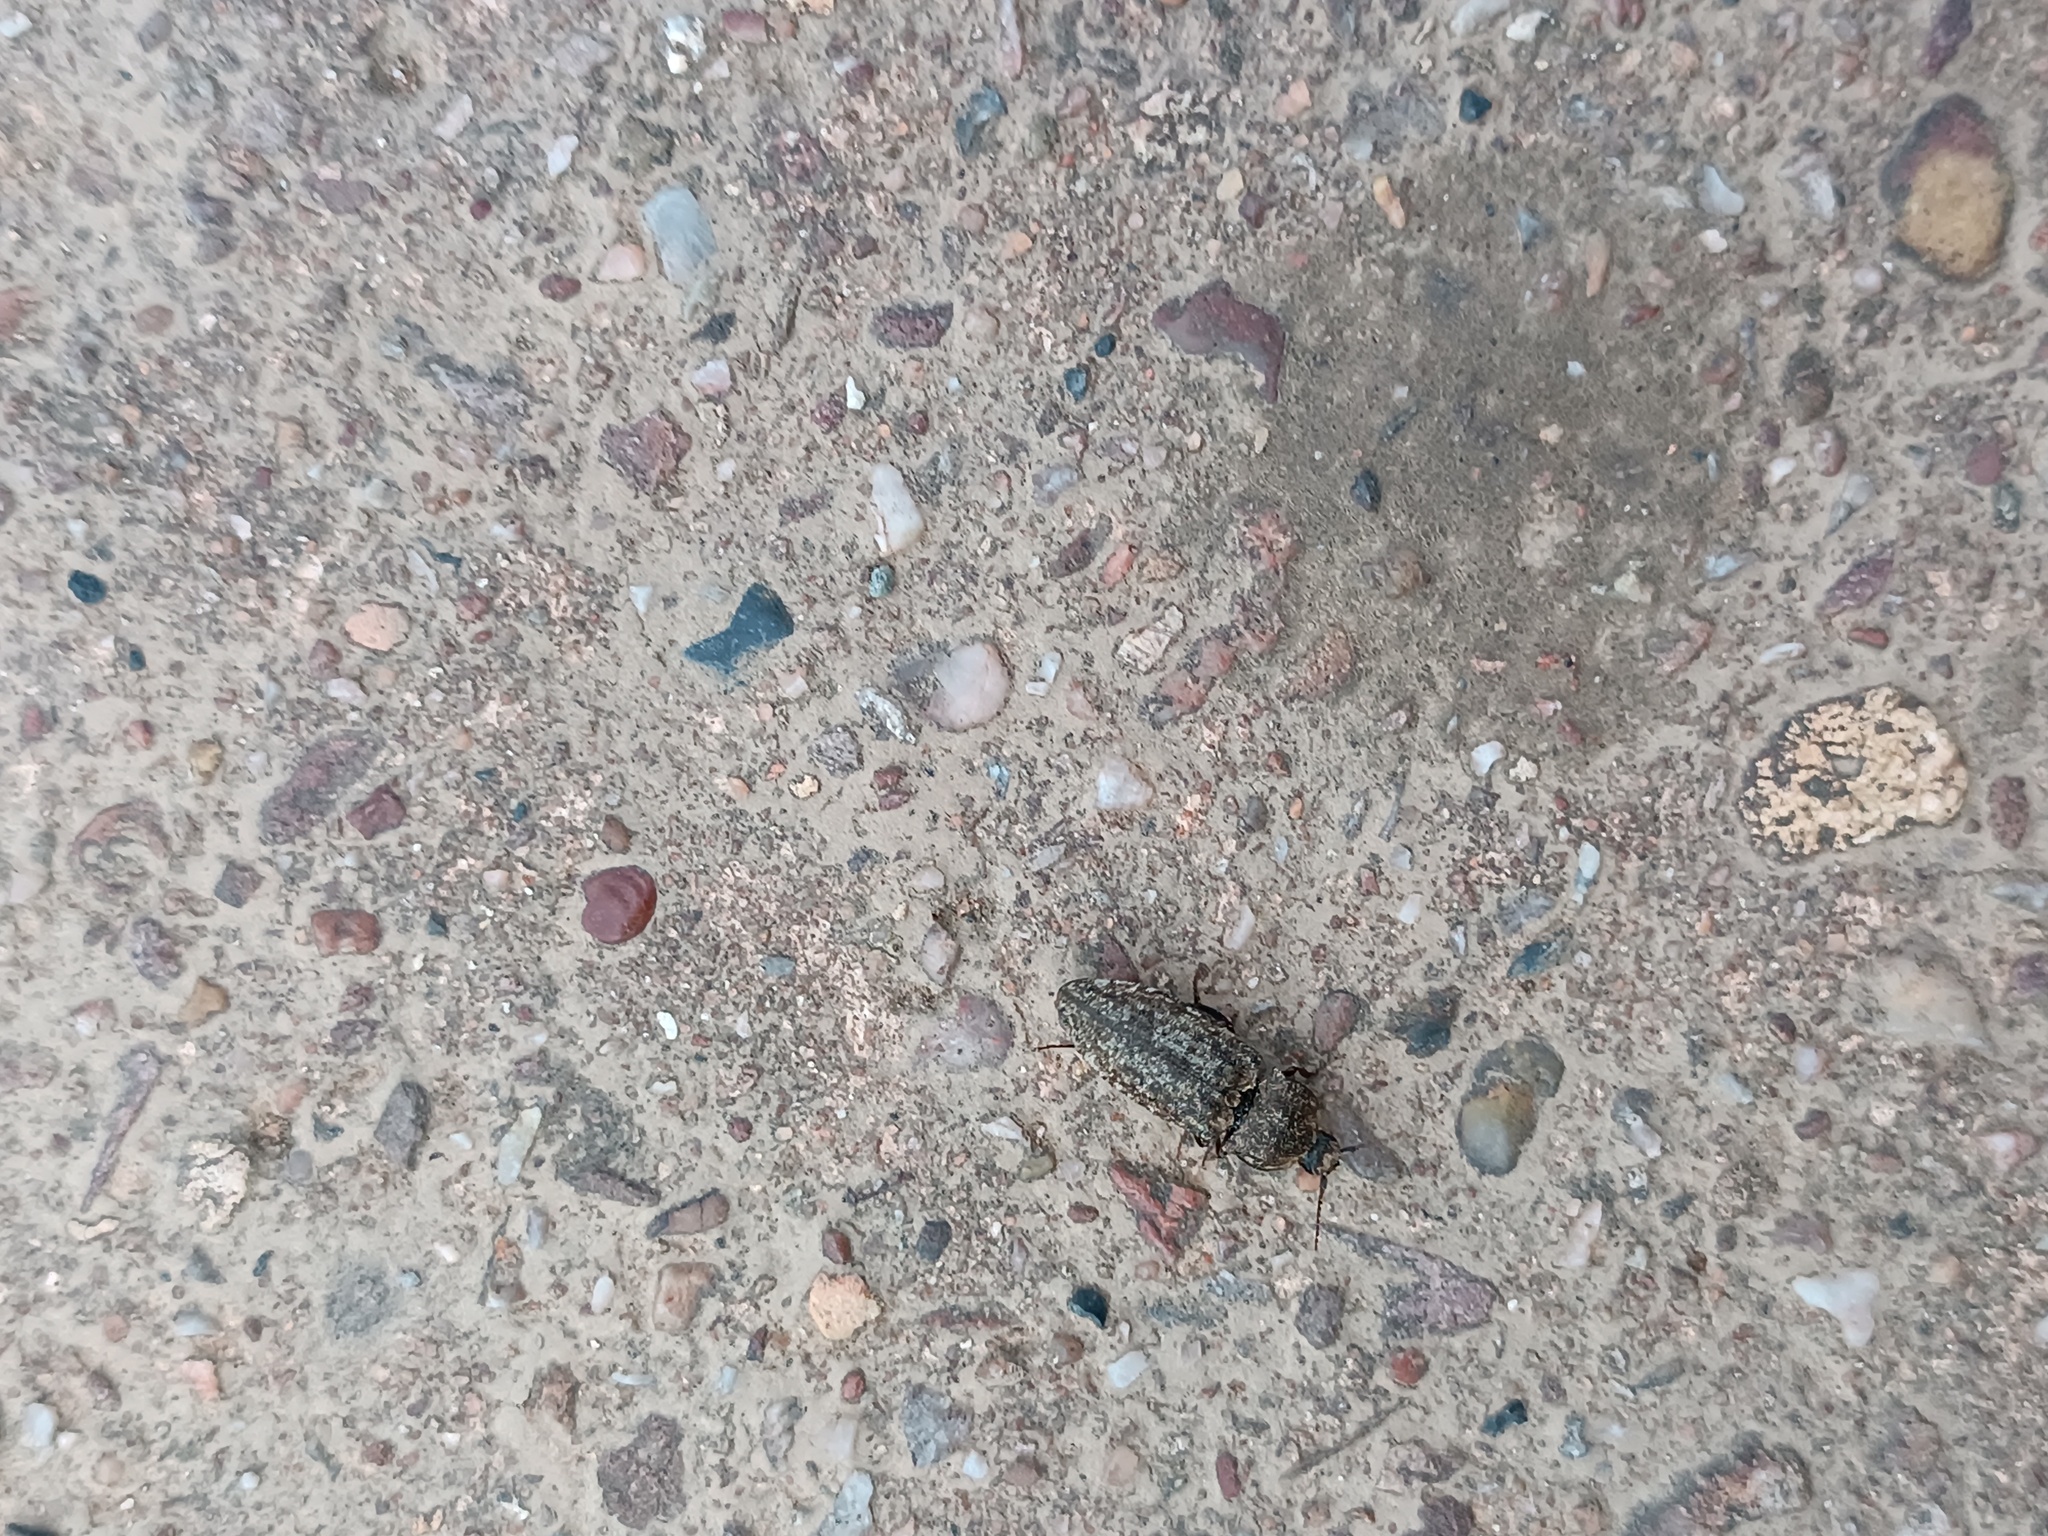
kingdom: Animalia
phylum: Arthropoda
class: Insecta
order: Coleoptera
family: Elateridae
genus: Agrypnus
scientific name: Agrypnus murinus
